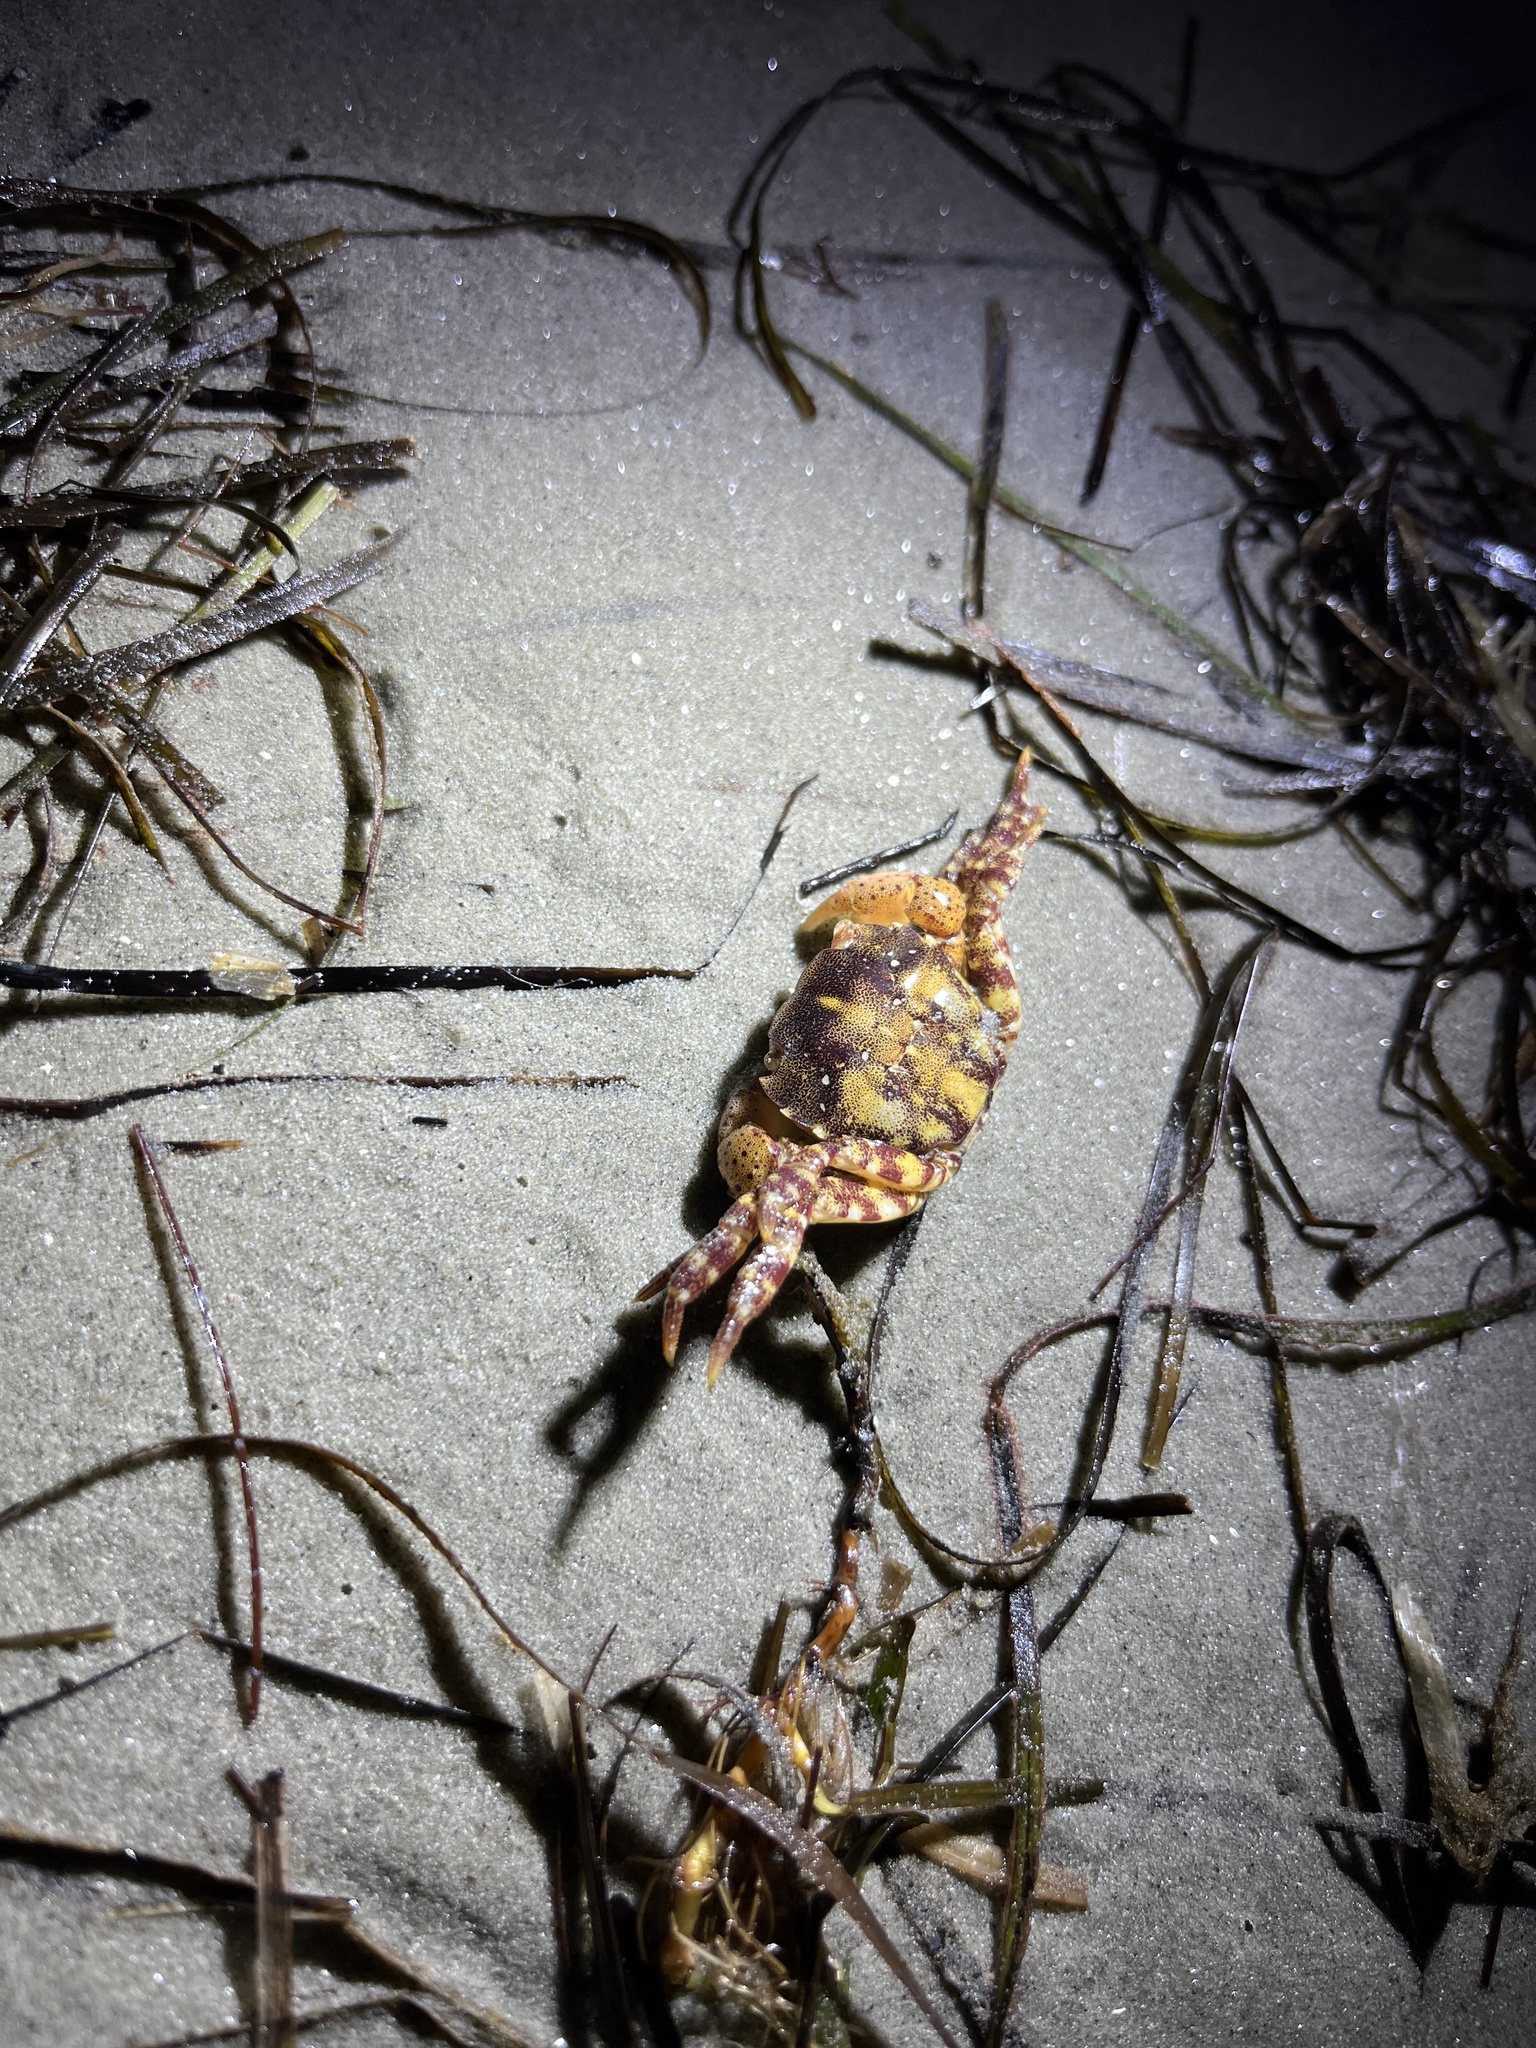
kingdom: Animalia
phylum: Arthropoda
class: Malacostraca
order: Decapoda
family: Varunidae
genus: Hemigrapsus
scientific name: Hemigrapsus sanguineus
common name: Asian shore crab
